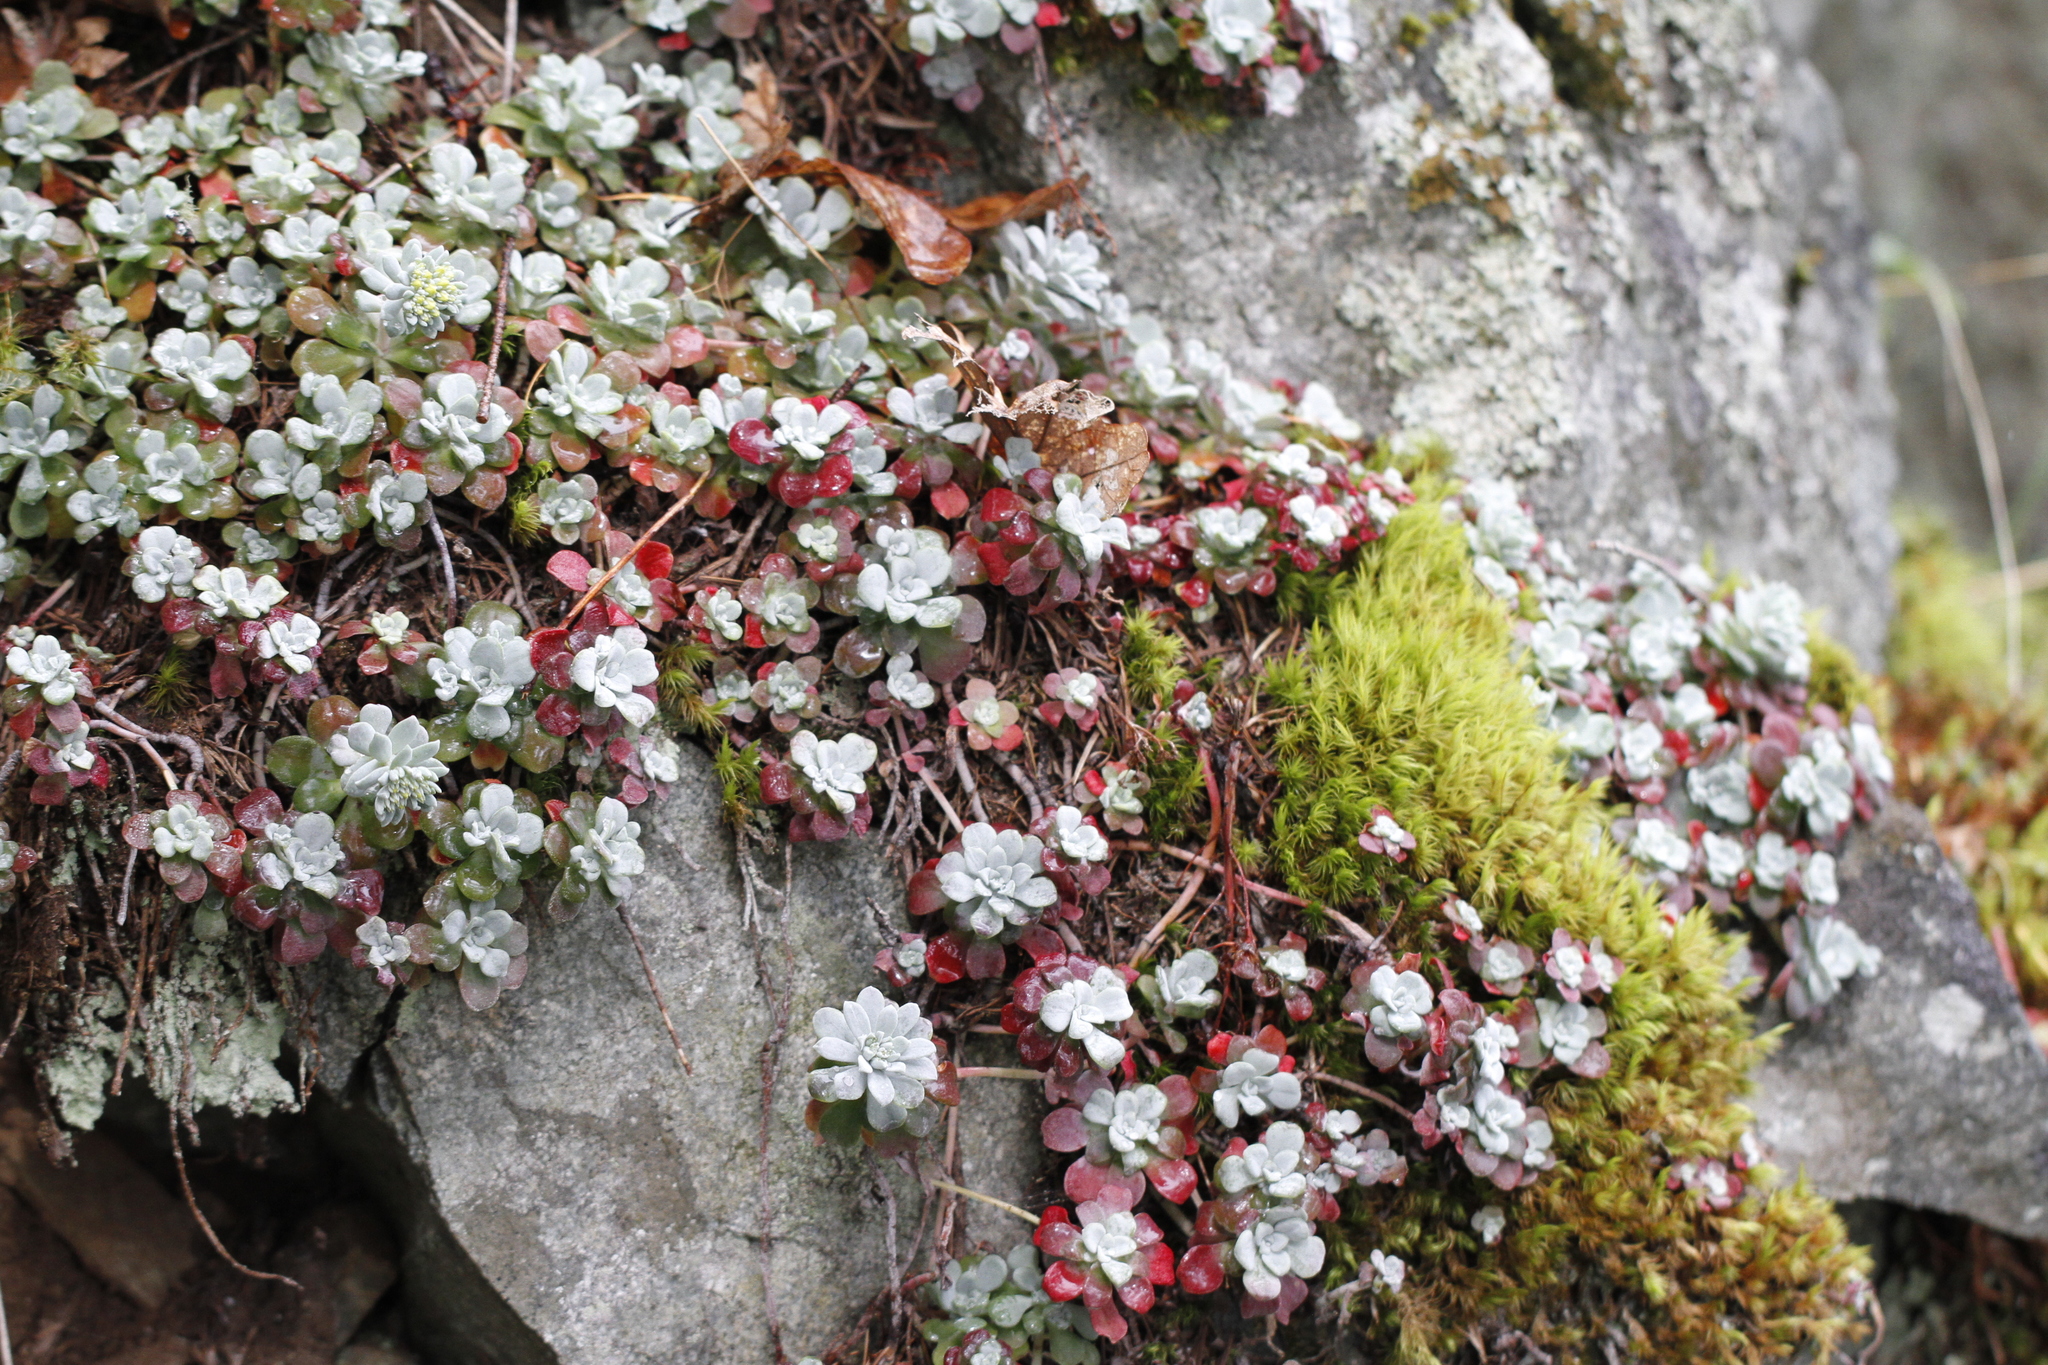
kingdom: Plantae
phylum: Tracheophyta
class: Magnoliopsida
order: Saxifragales
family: Crassulaceae
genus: Sedum
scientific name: Sedum spathulifolium
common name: Colorado stonecrop
